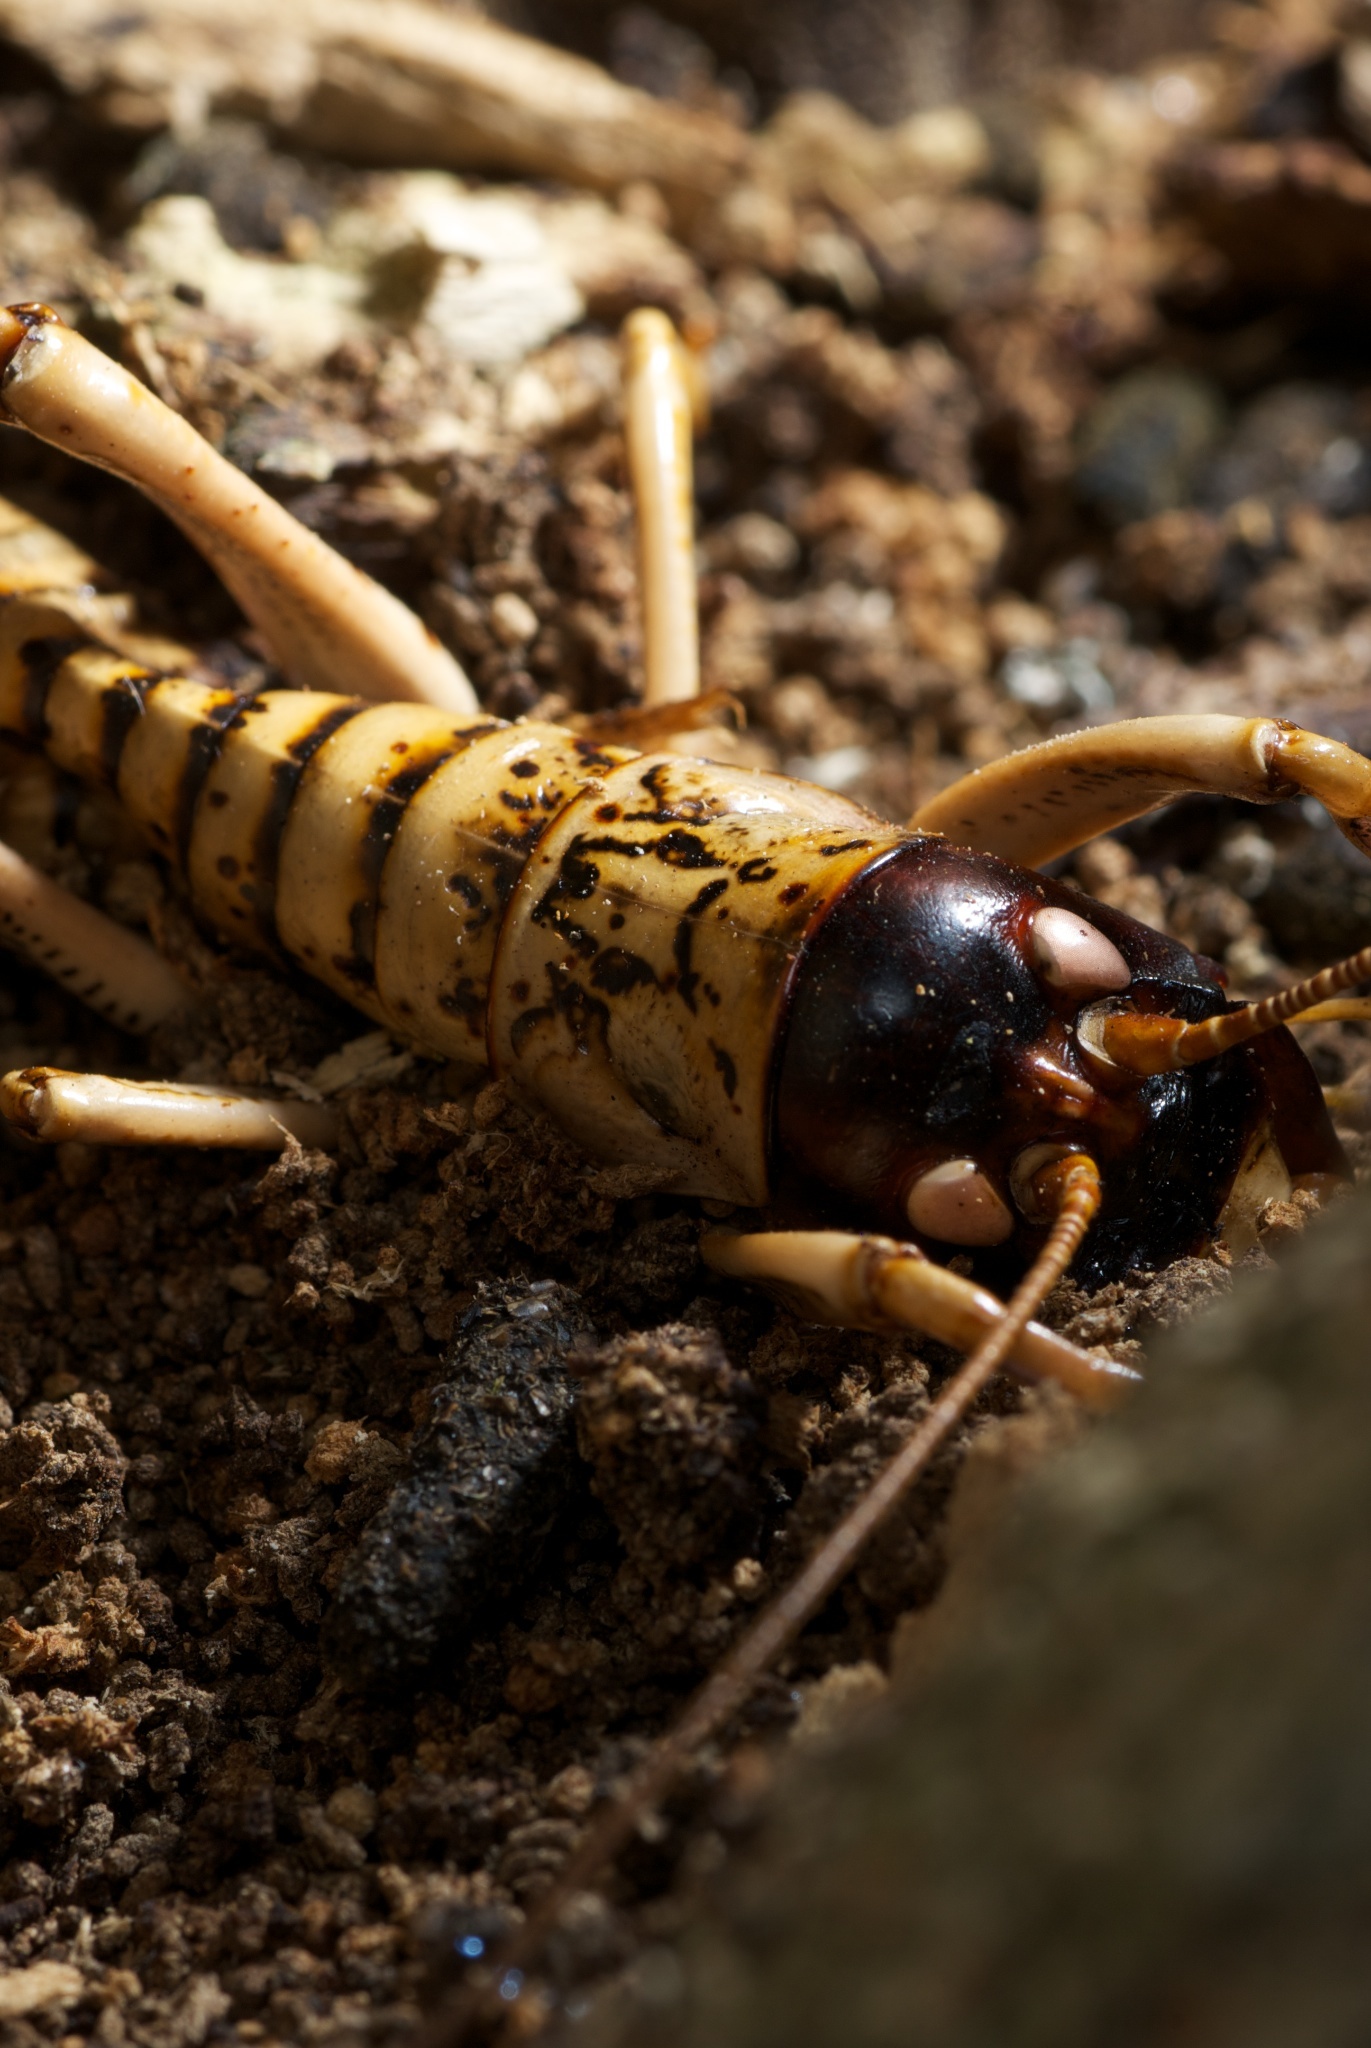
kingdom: Animalia
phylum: Arthropoda
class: Insecta
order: Orthoptera
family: Anostostomatidae
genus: Hemideina
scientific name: Hemideina femorata
